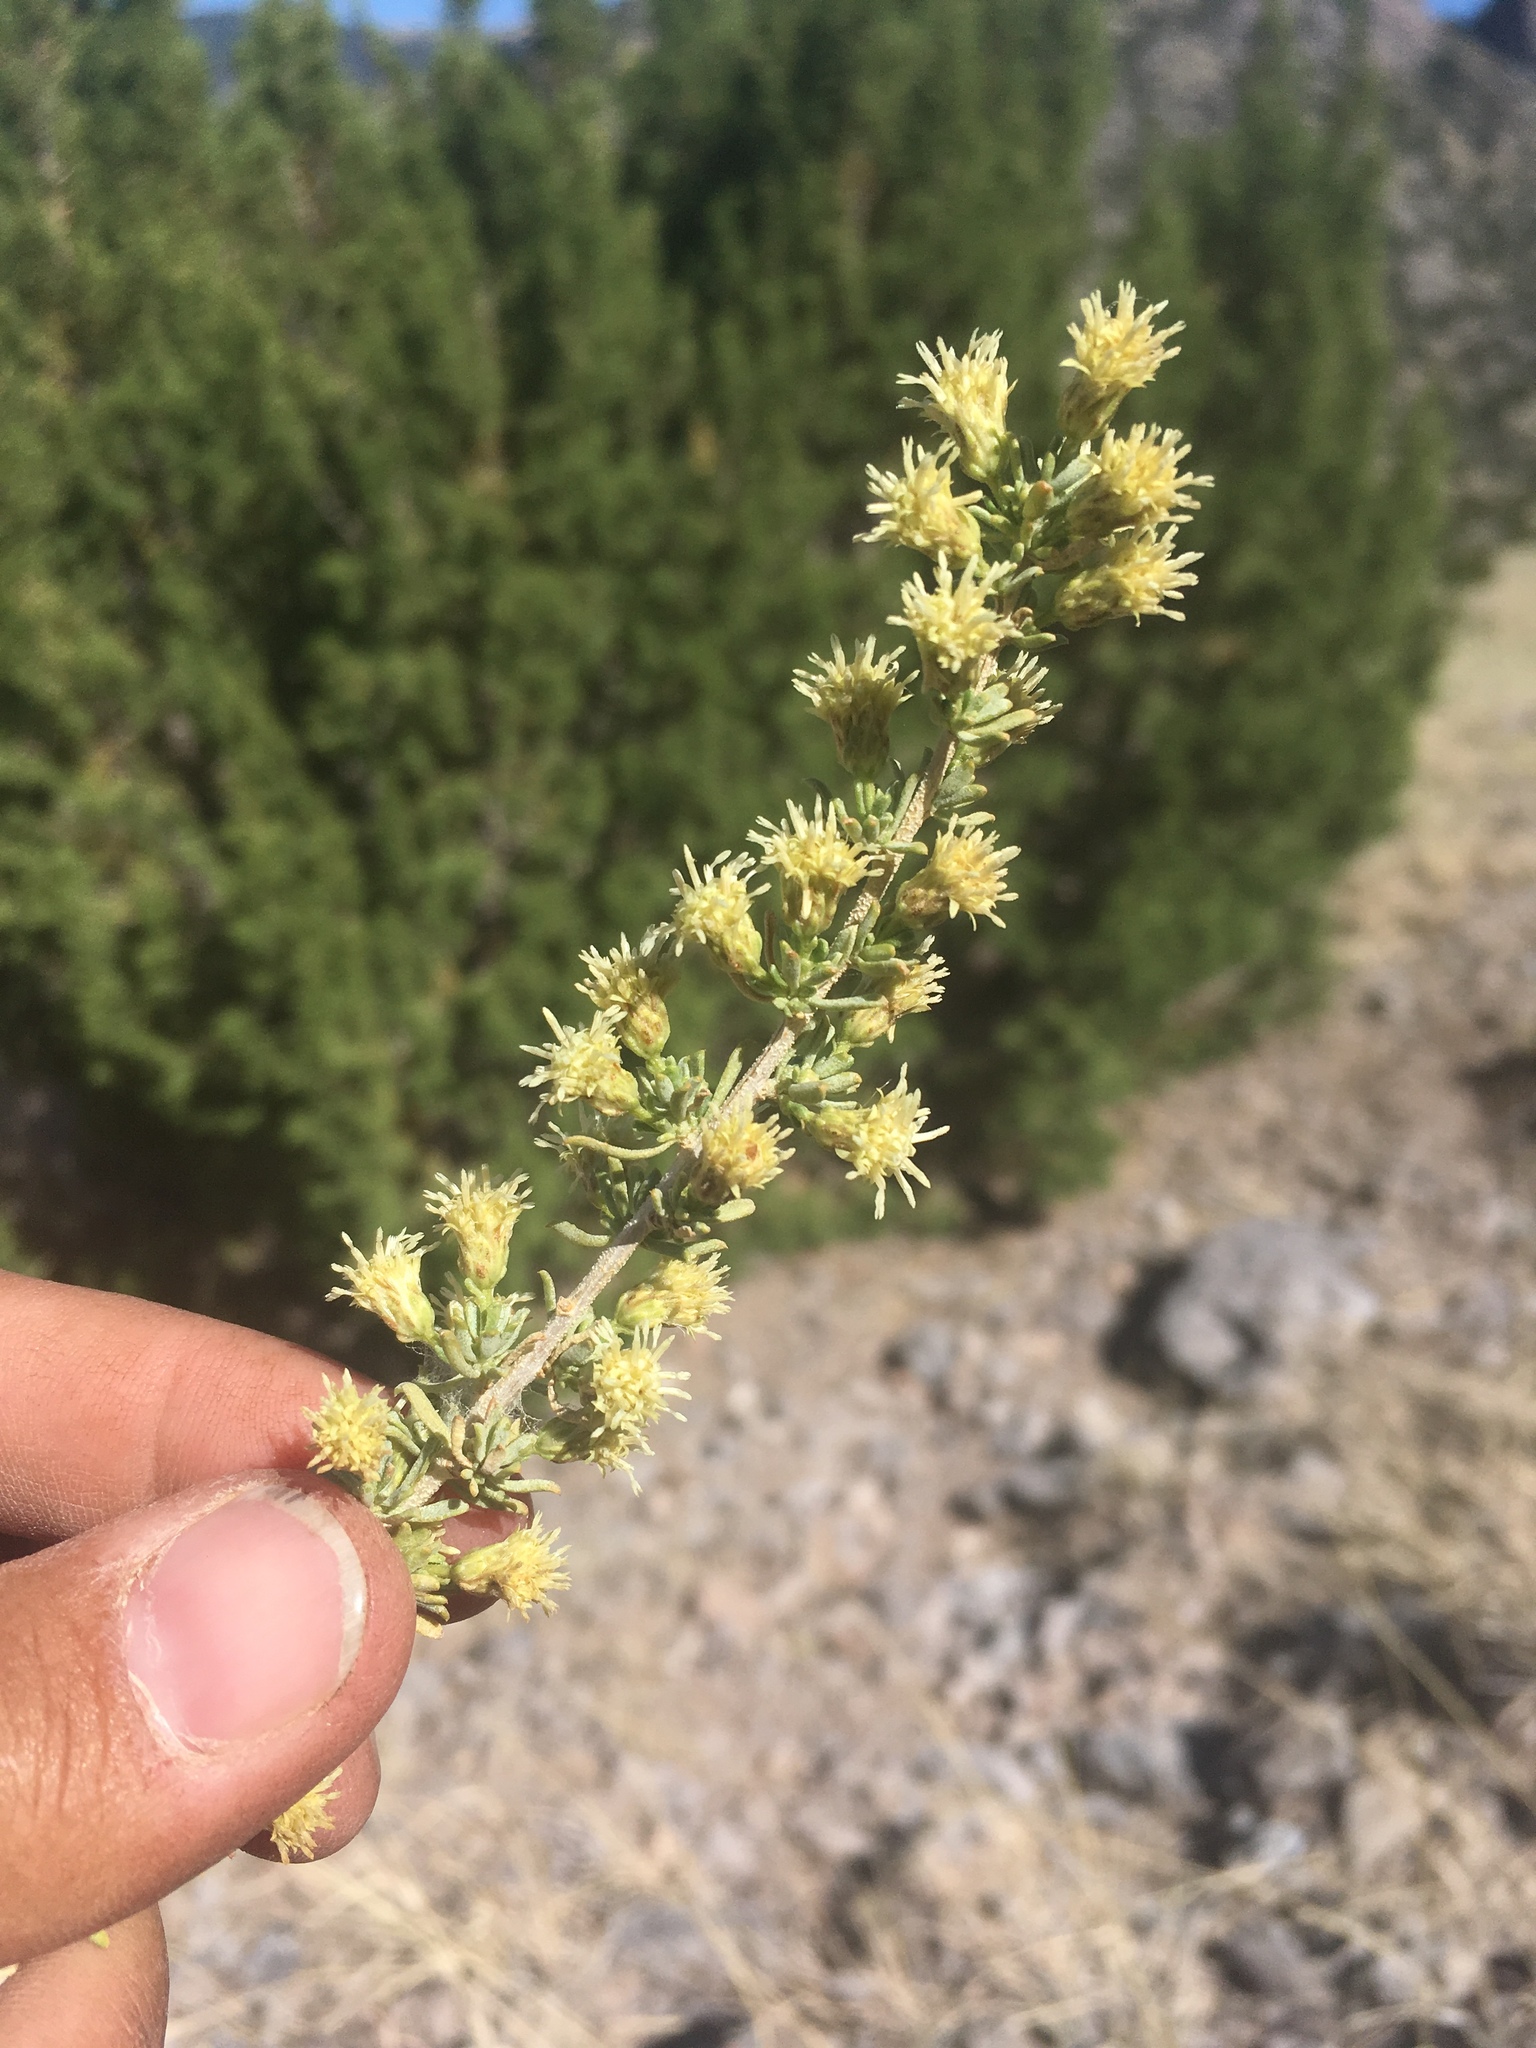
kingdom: Plantae
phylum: Tracheophyta
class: Magnoliopsida
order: Asterales
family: Asteraceae
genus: Baccharis
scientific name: Baccharis pteronioides
